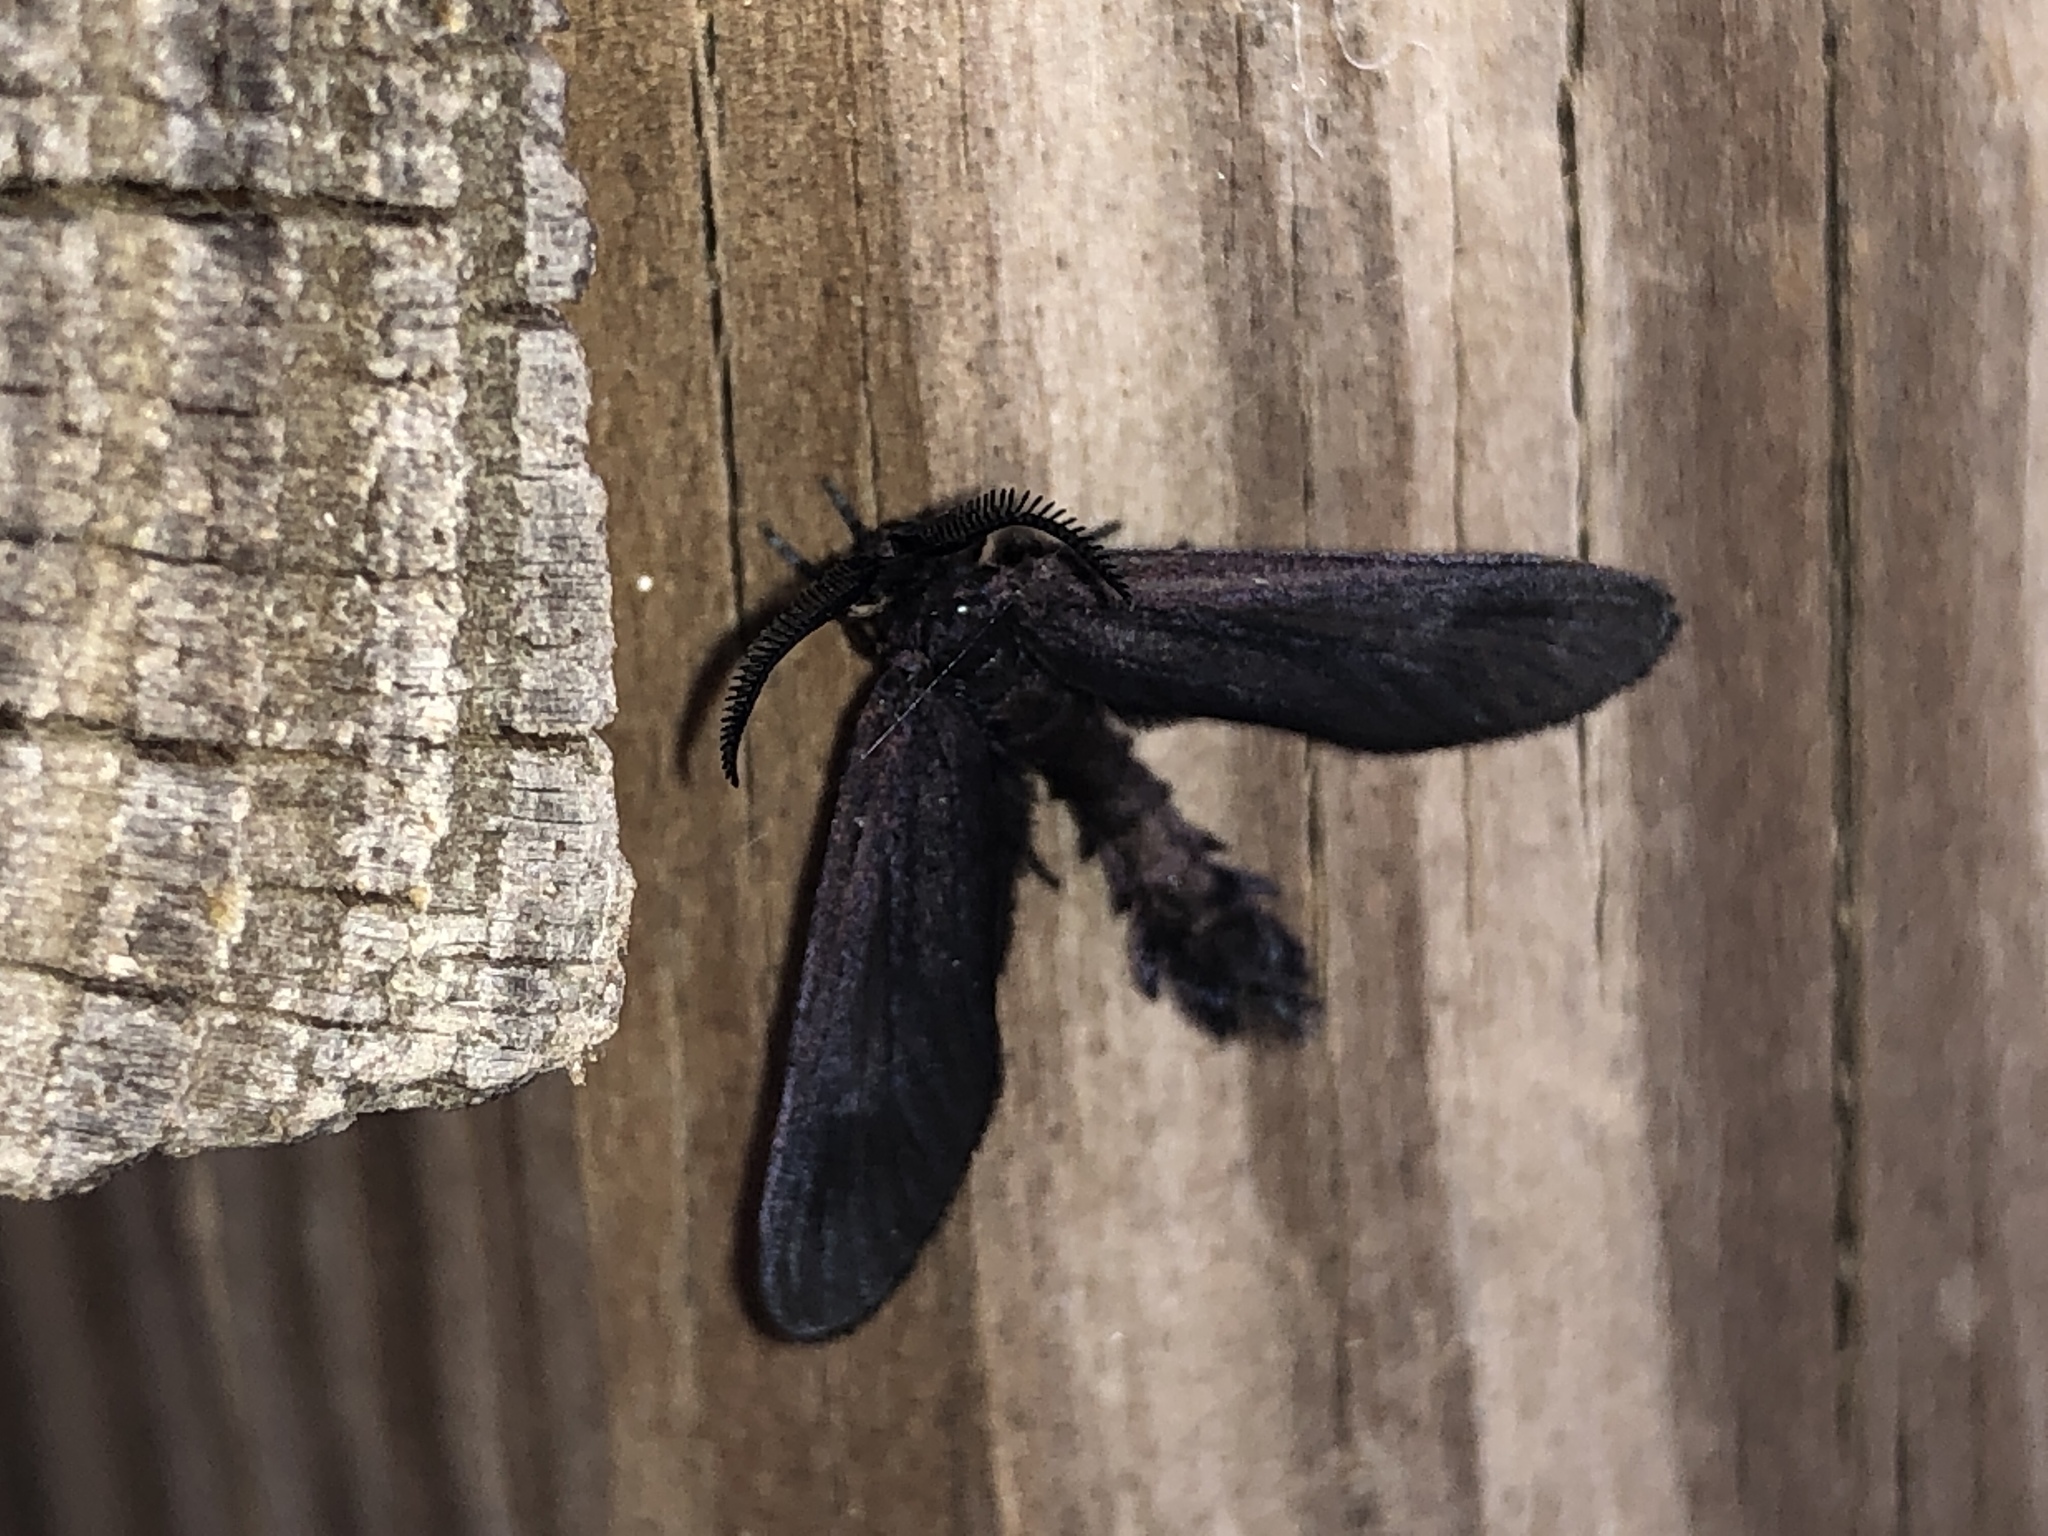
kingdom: Animalia
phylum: Arthropoda
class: Insecta
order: Lepidoptera
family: Zygaenidae
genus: Harrisina
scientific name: Harrisina coracina
